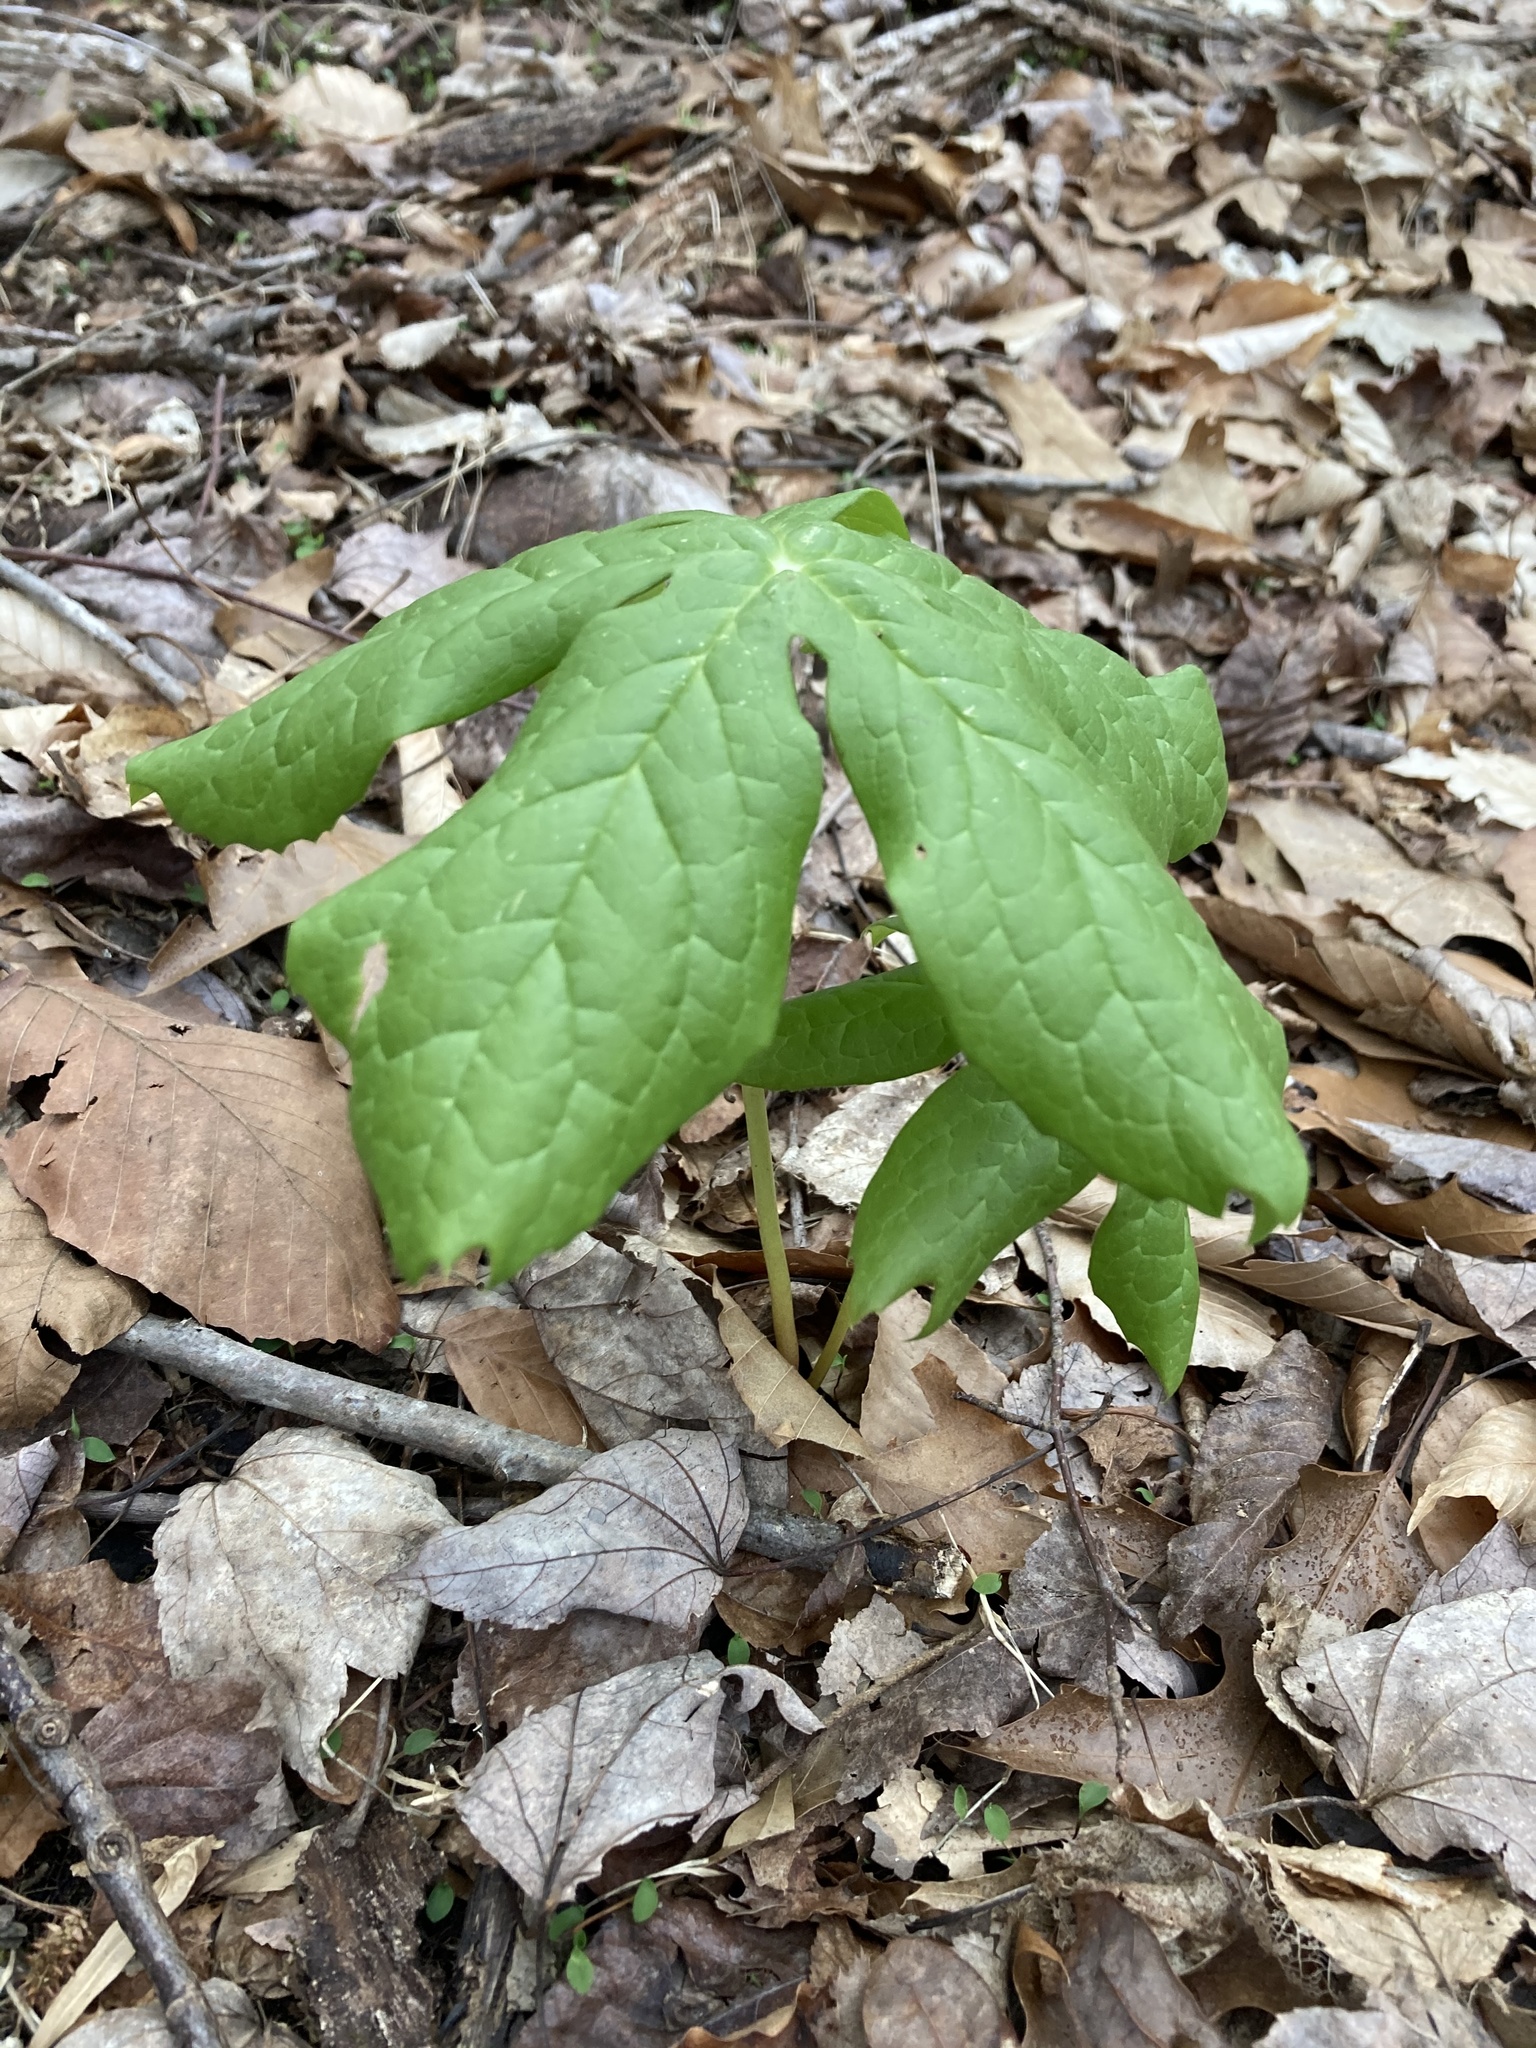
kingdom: Plantae
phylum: Tracheophyta
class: Magnoliopsida
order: Ranunculales
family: Berberidaceae
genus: Podophyllum
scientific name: Podophyllum peltatum
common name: Wild mandrake
